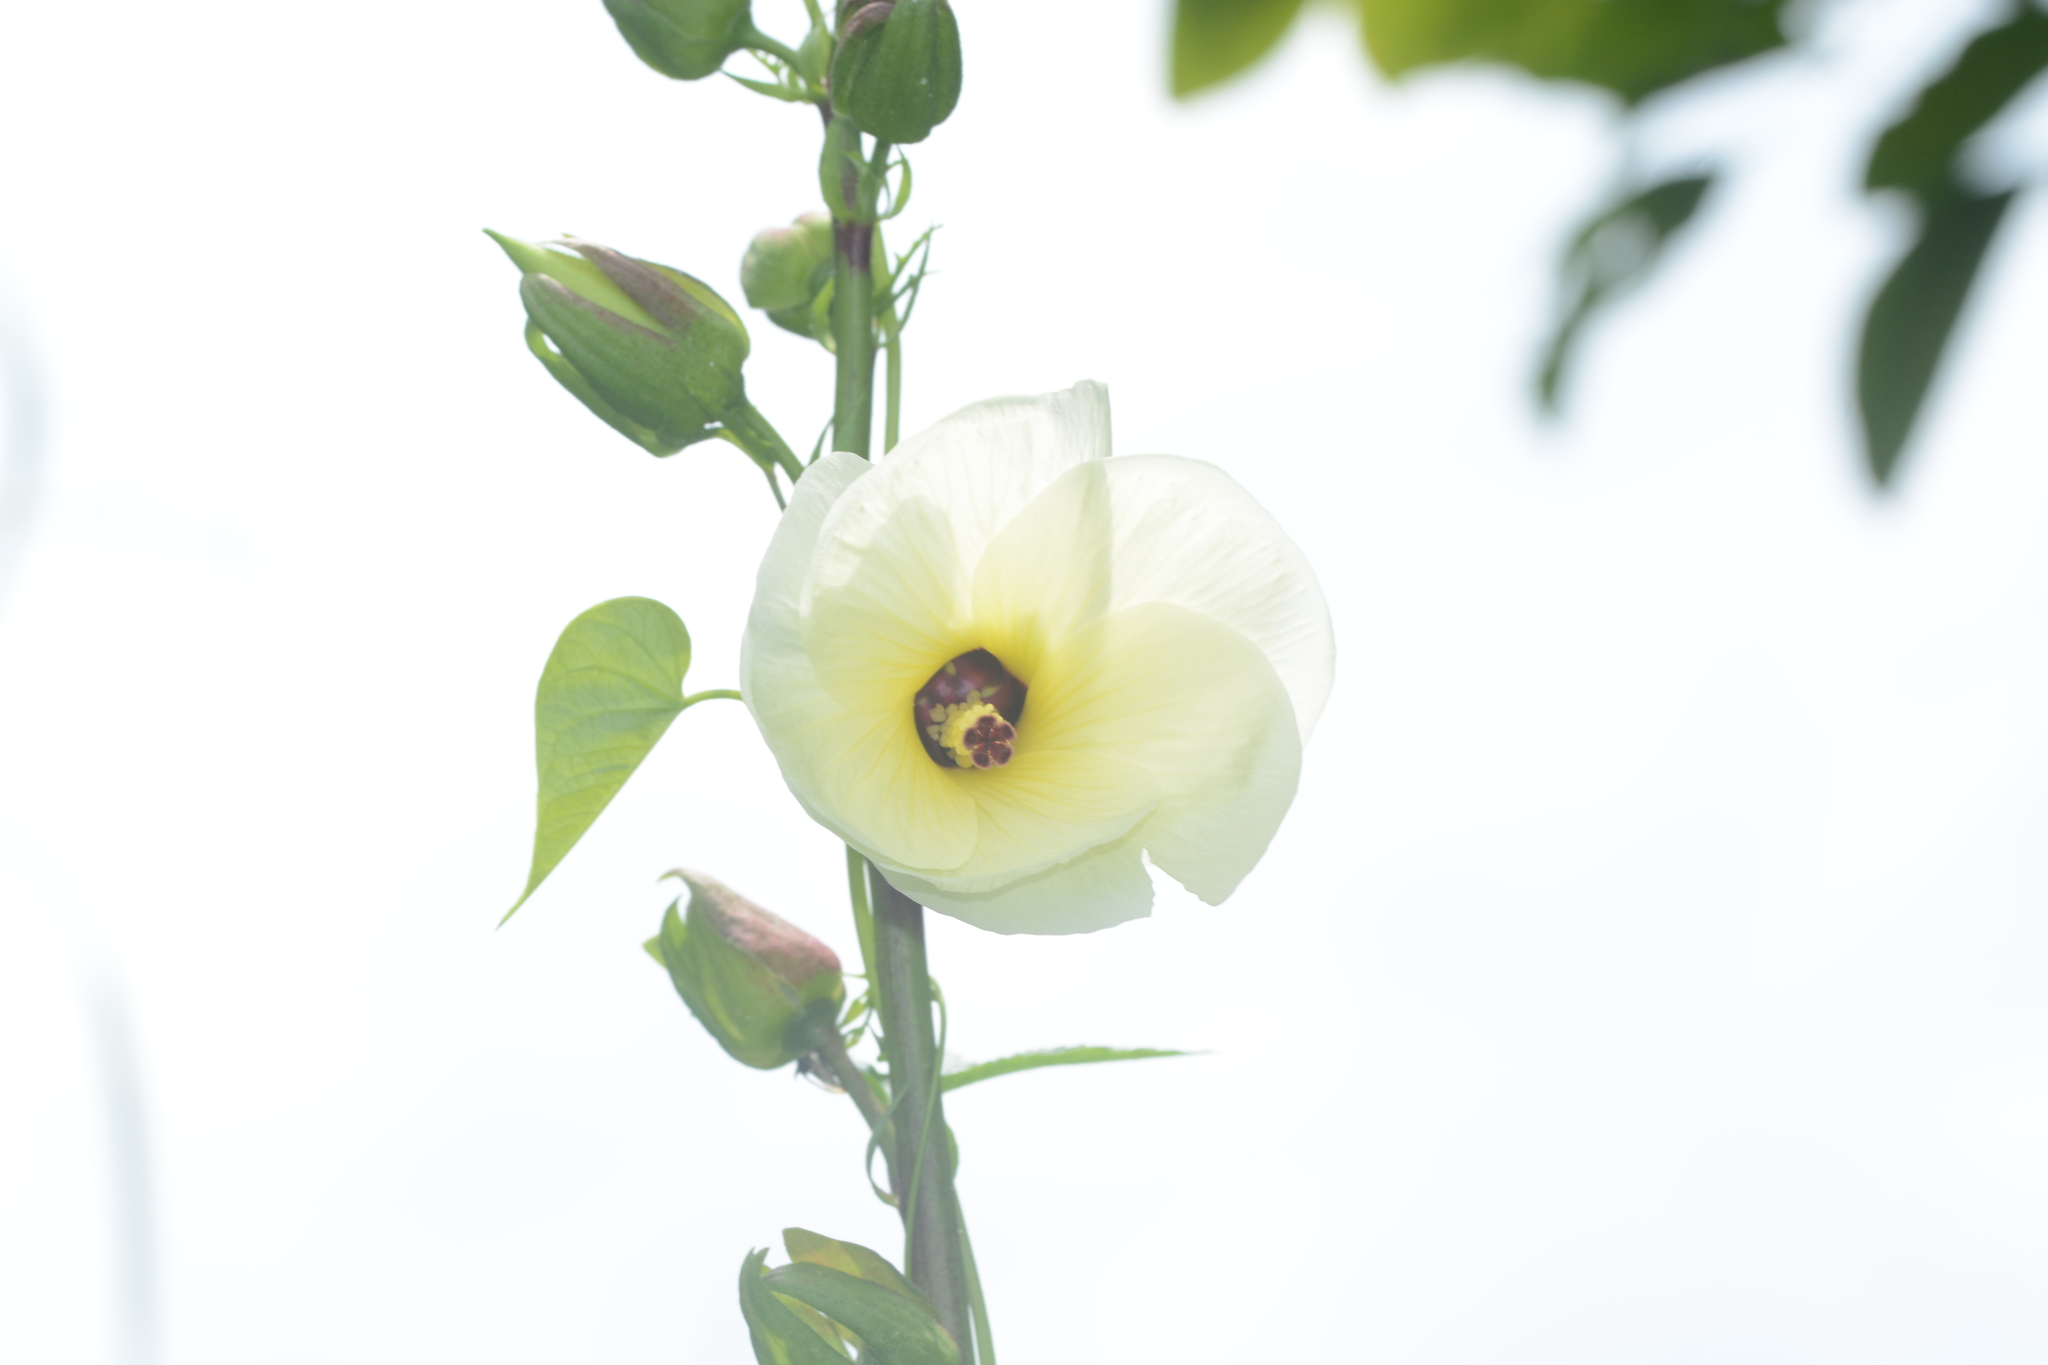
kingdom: Plantae
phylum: Tracheophyta
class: Magnoliopsida
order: Malvales
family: Malvaceae
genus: Abelmoschus
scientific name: Abelmoschus manihot
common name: Sunset muskmallow
